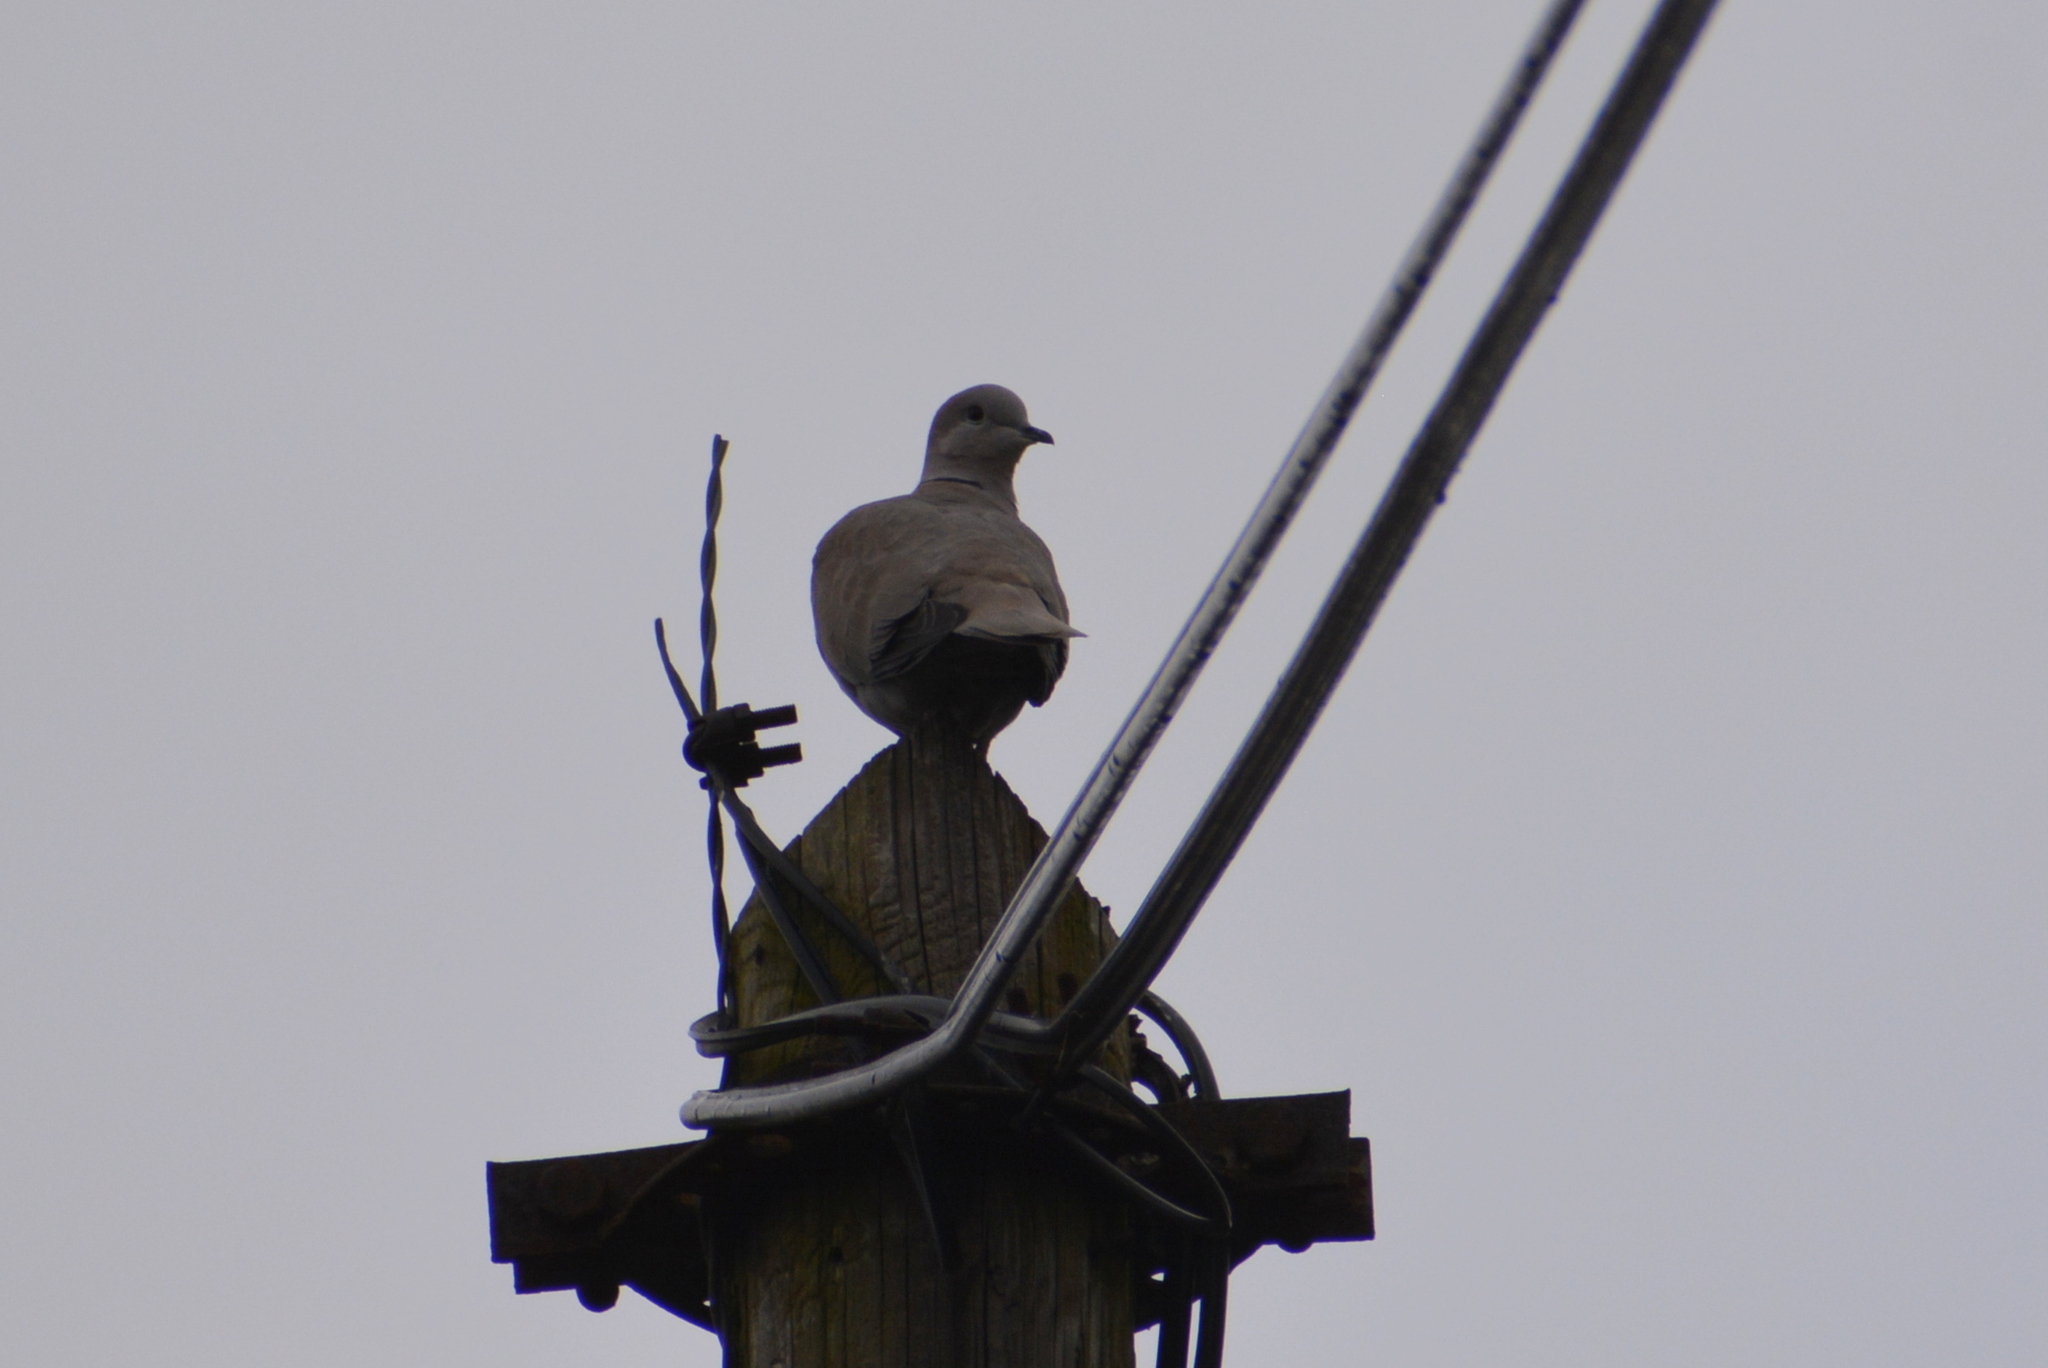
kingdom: Animalia
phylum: Chordata
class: Aves
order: Columbiformes
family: Columbidae
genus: Streptopelia
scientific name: Streptopelia decaocto
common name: Eurasian collared dove
